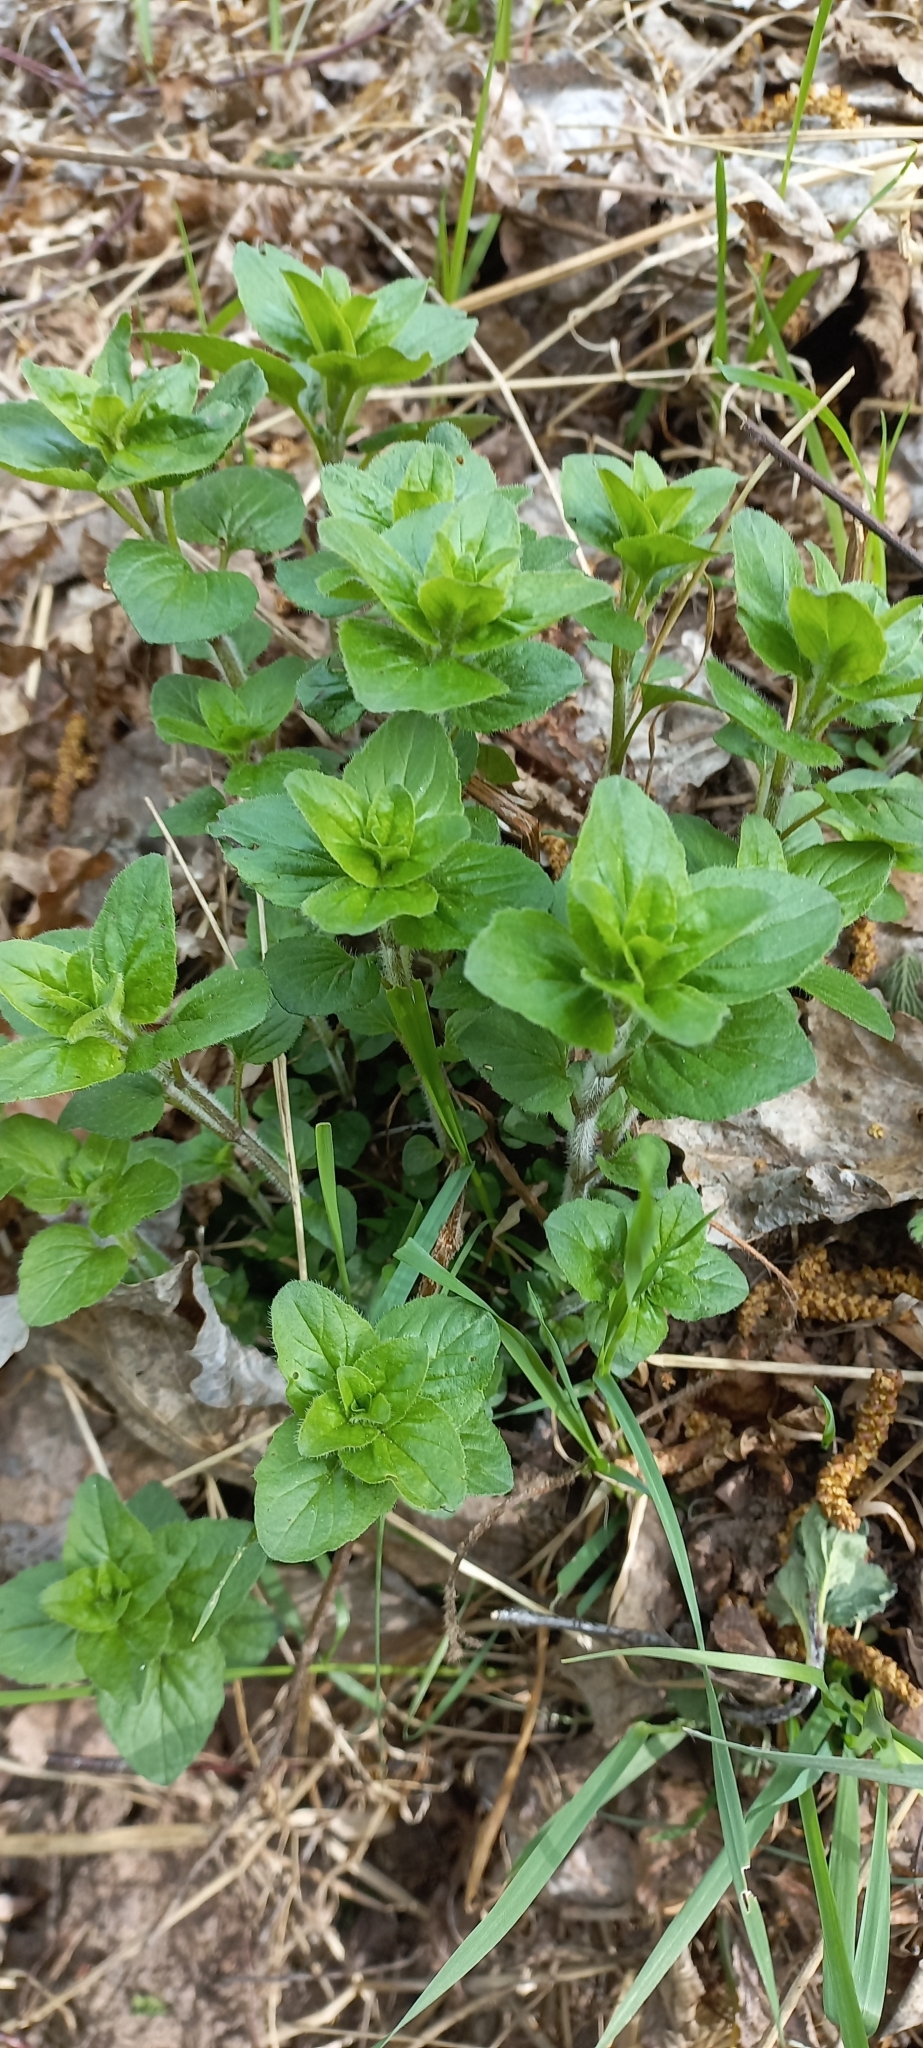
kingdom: Plantae
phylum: Tracheophyta
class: Magnoliopsida
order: Lamiales
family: Lamiaceae
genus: Origanum
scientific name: Origanum vulgare
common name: Wild marjoram
